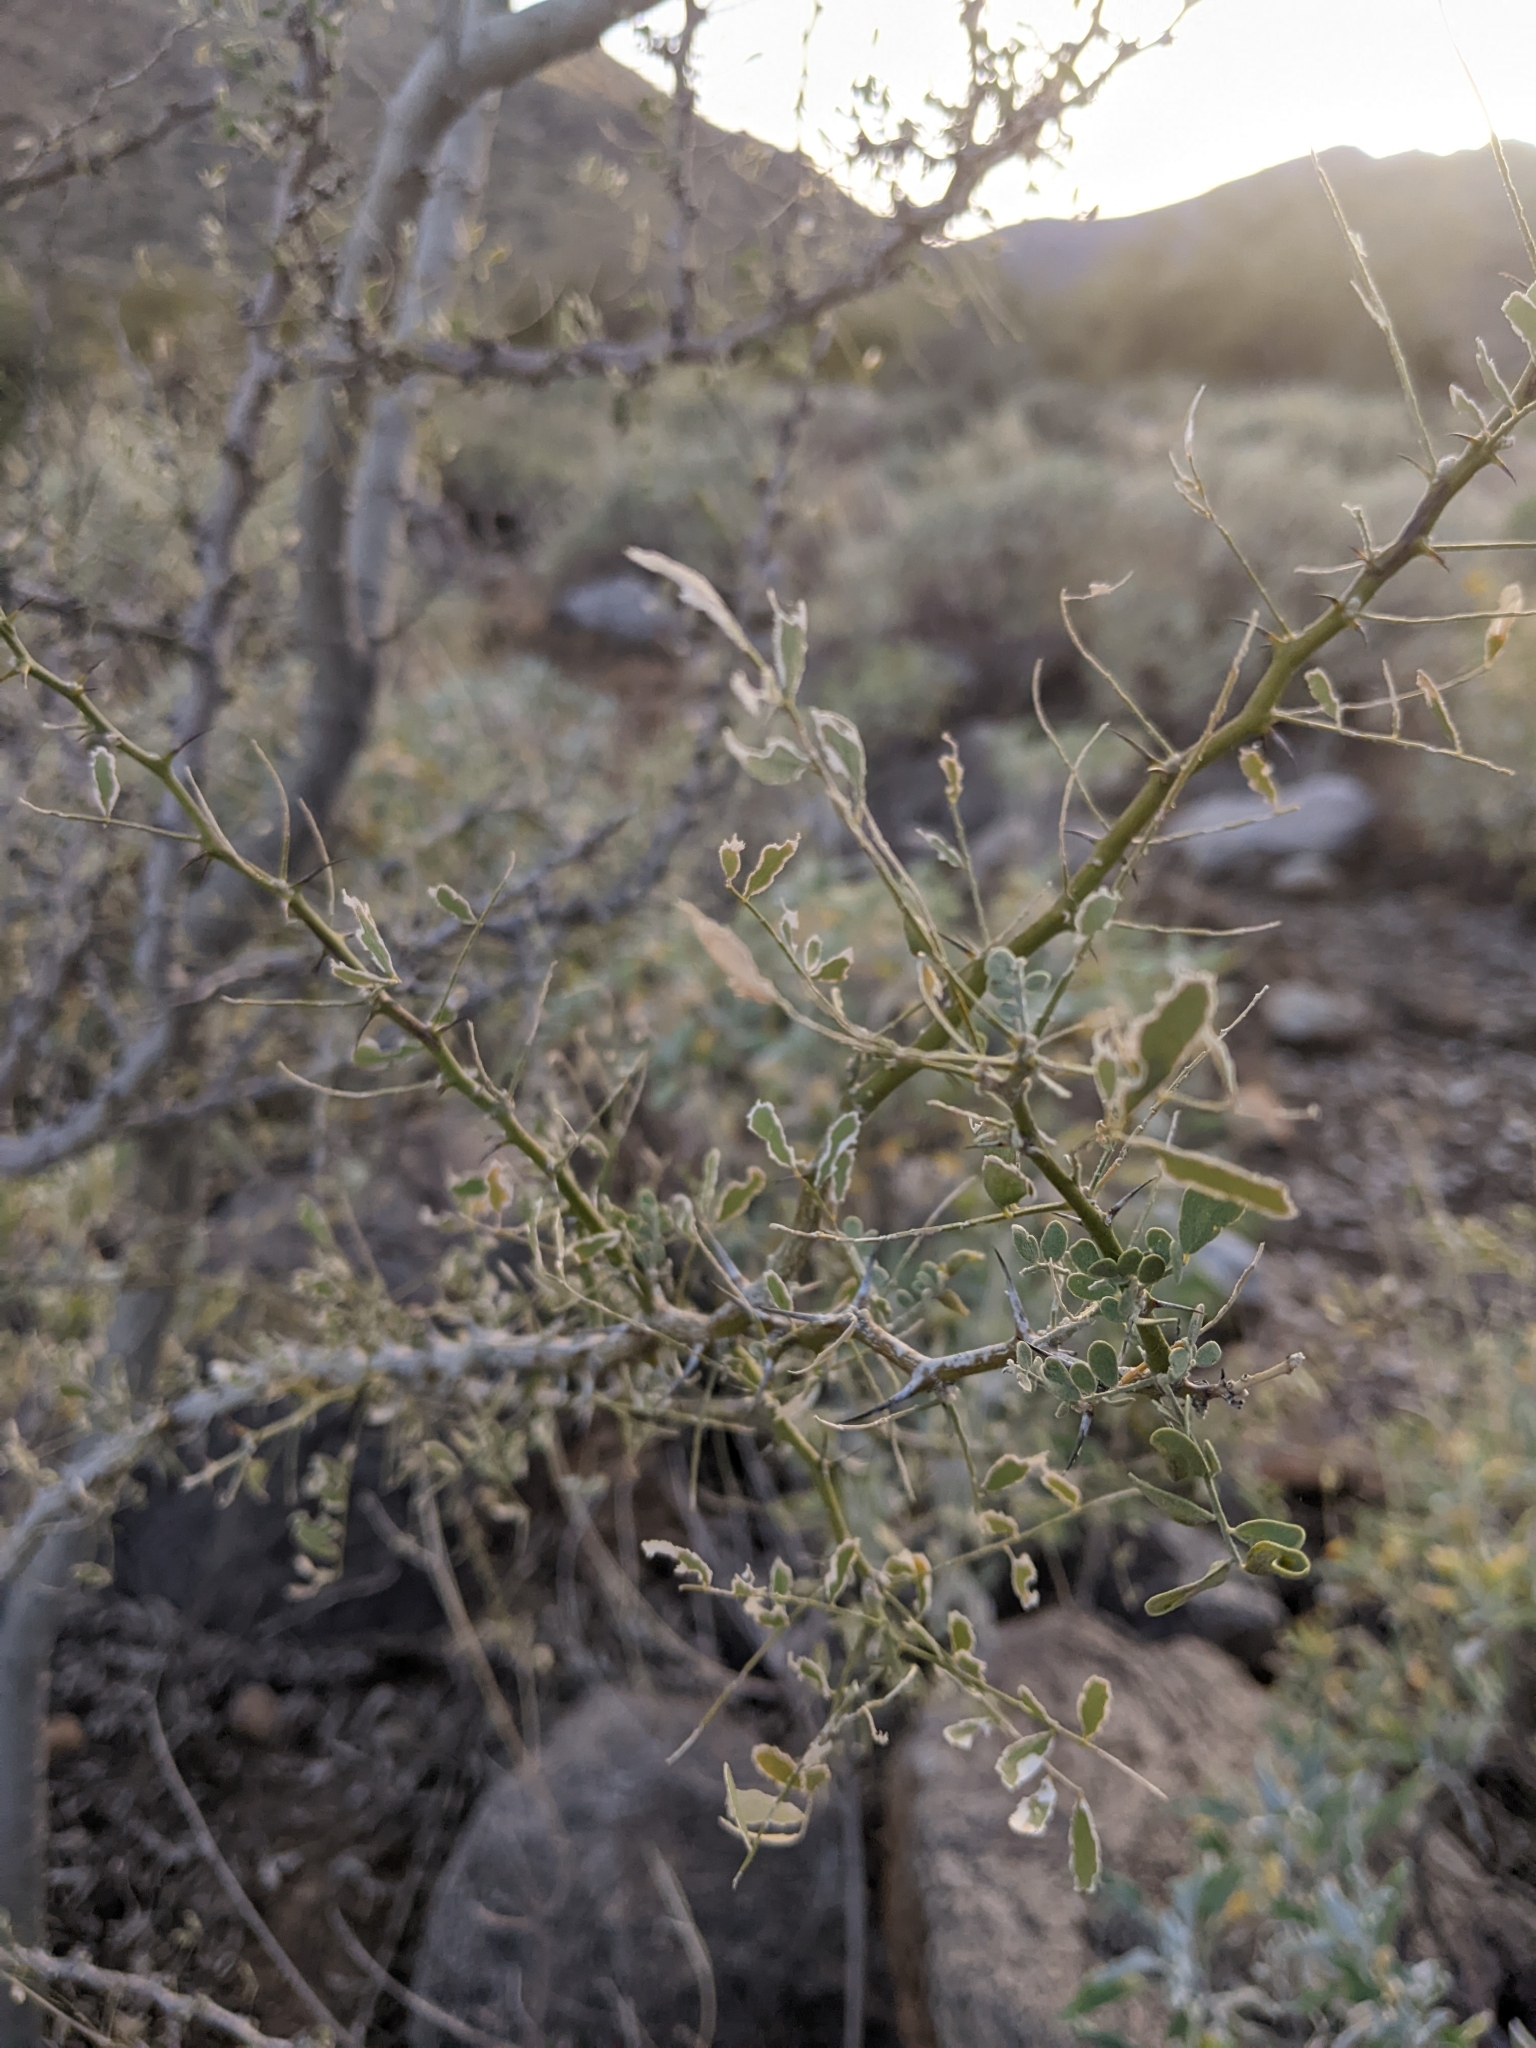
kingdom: Plantae
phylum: Tracheophyta
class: Magnoliopsida
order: Fabales
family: Fabaceae
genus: Olneya
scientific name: Olneya tesota
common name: Desert ironwood
